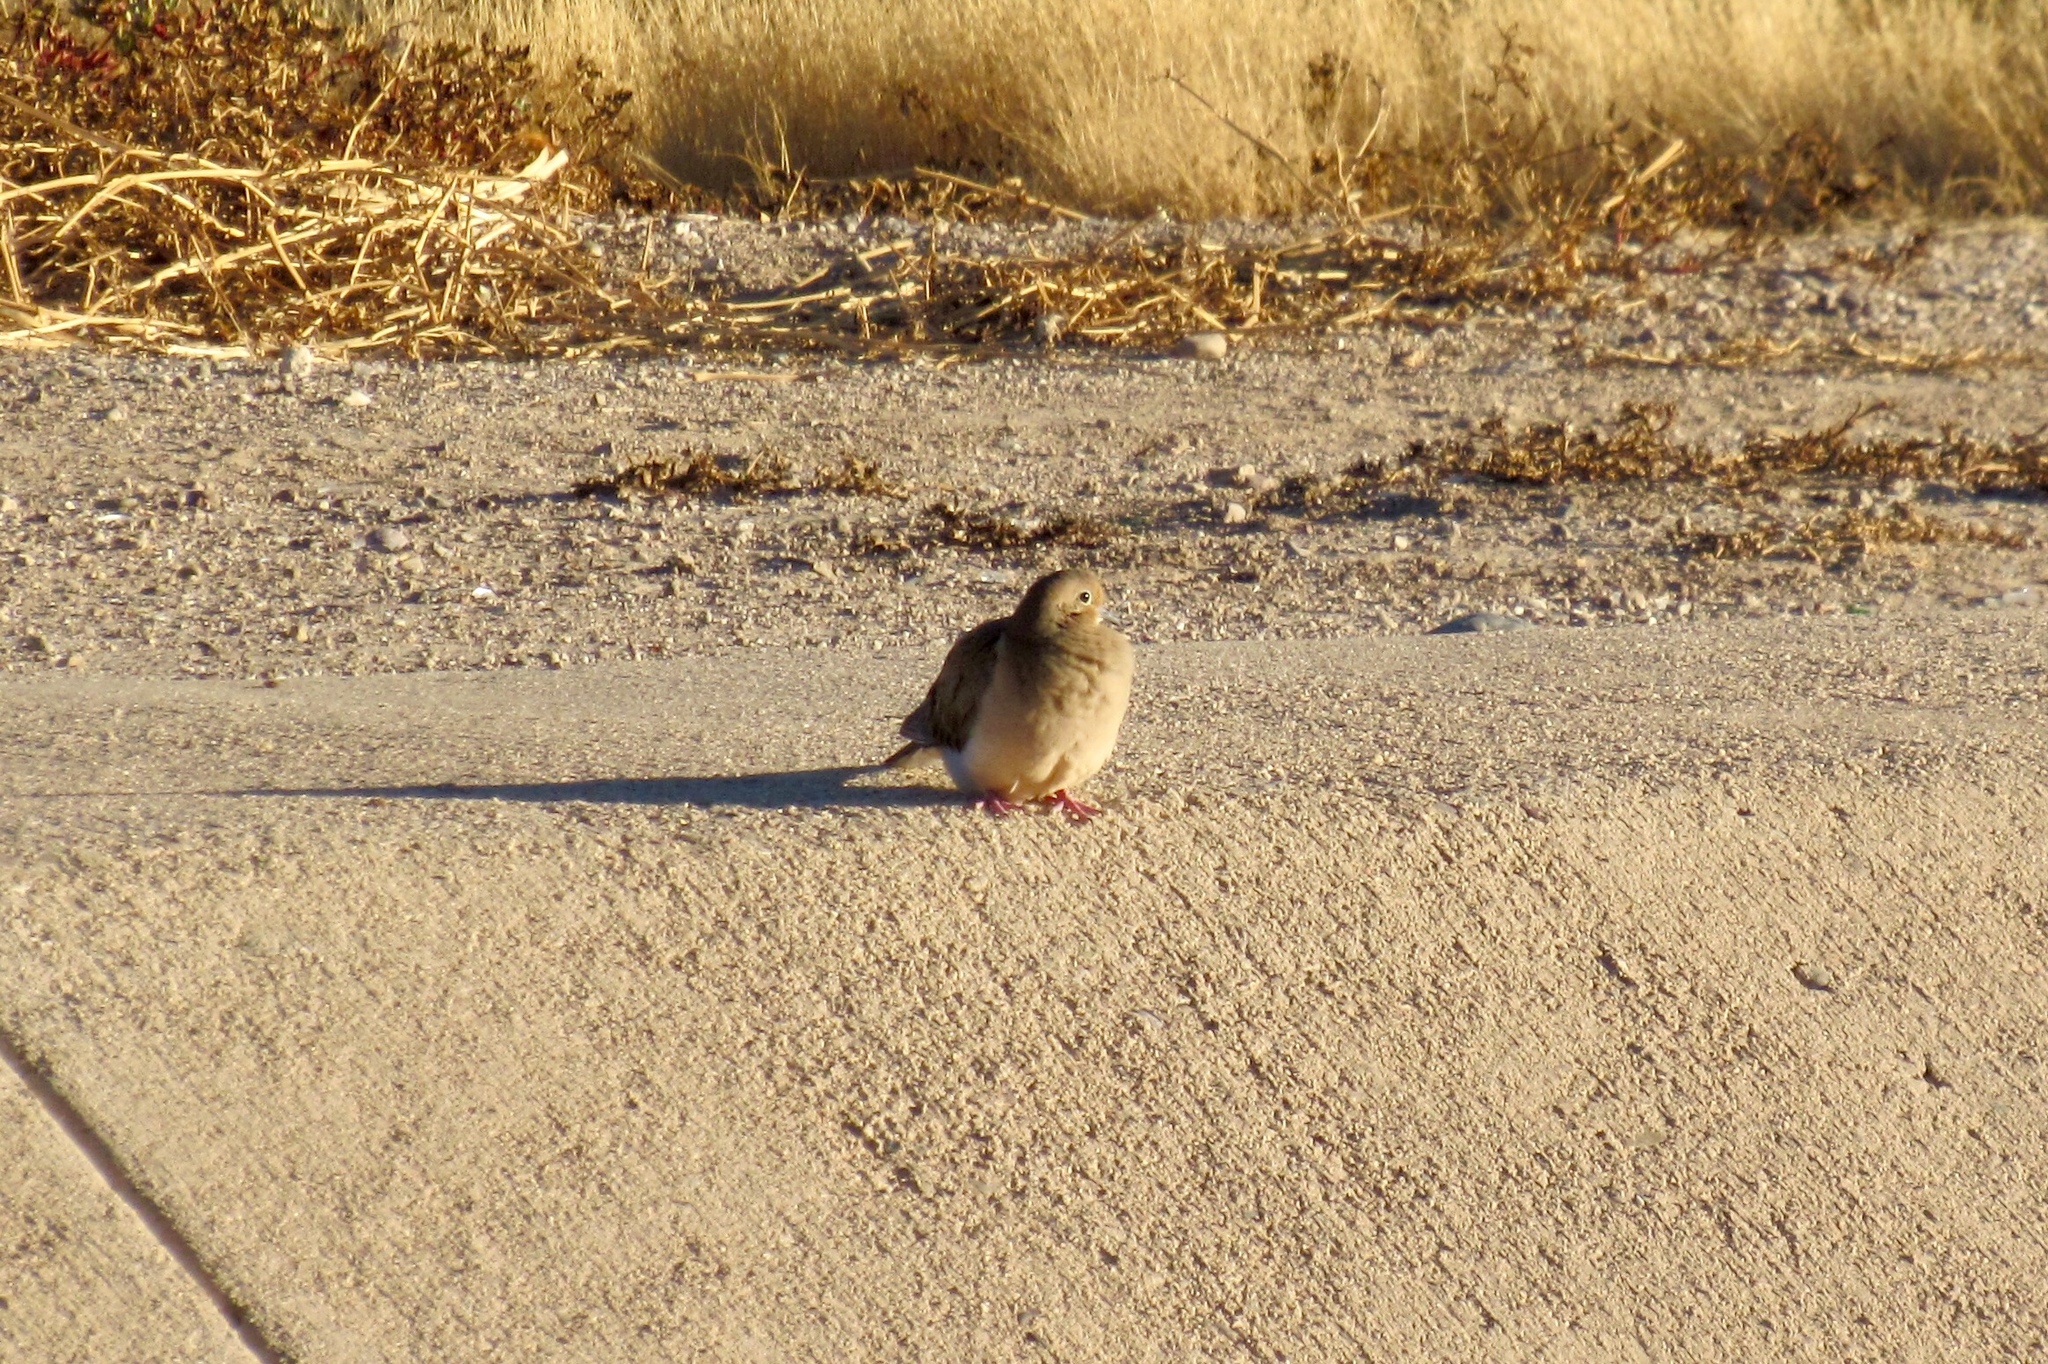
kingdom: Animalia
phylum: Chordata
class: Aves
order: Columbiformes
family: Columbidae
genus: Zenaida
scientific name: Zenaida macroura
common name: Mourning dove
